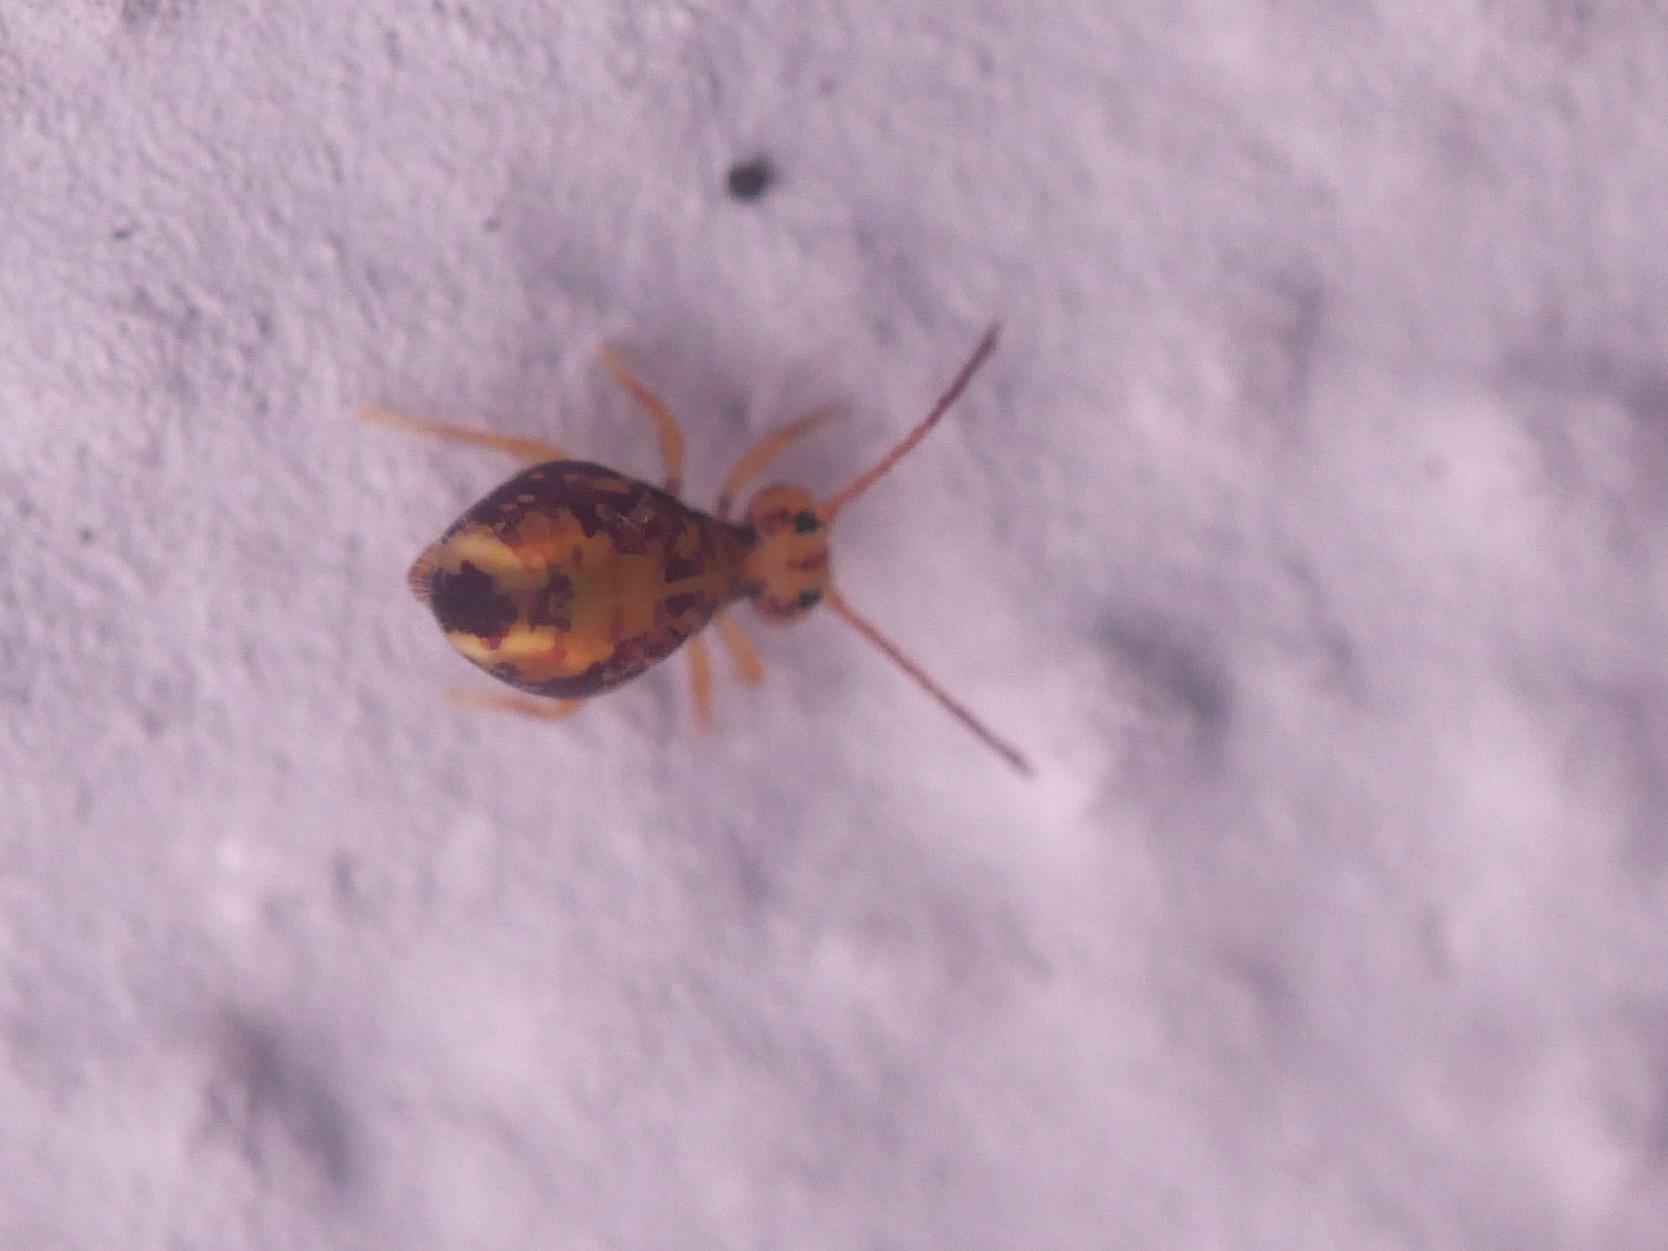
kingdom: Animalia
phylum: Arthropoda
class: Collembola
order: Symphypleona
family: Dicyrtomidae
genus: Dicyrtomina
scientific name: Dicyrtomina ornata
